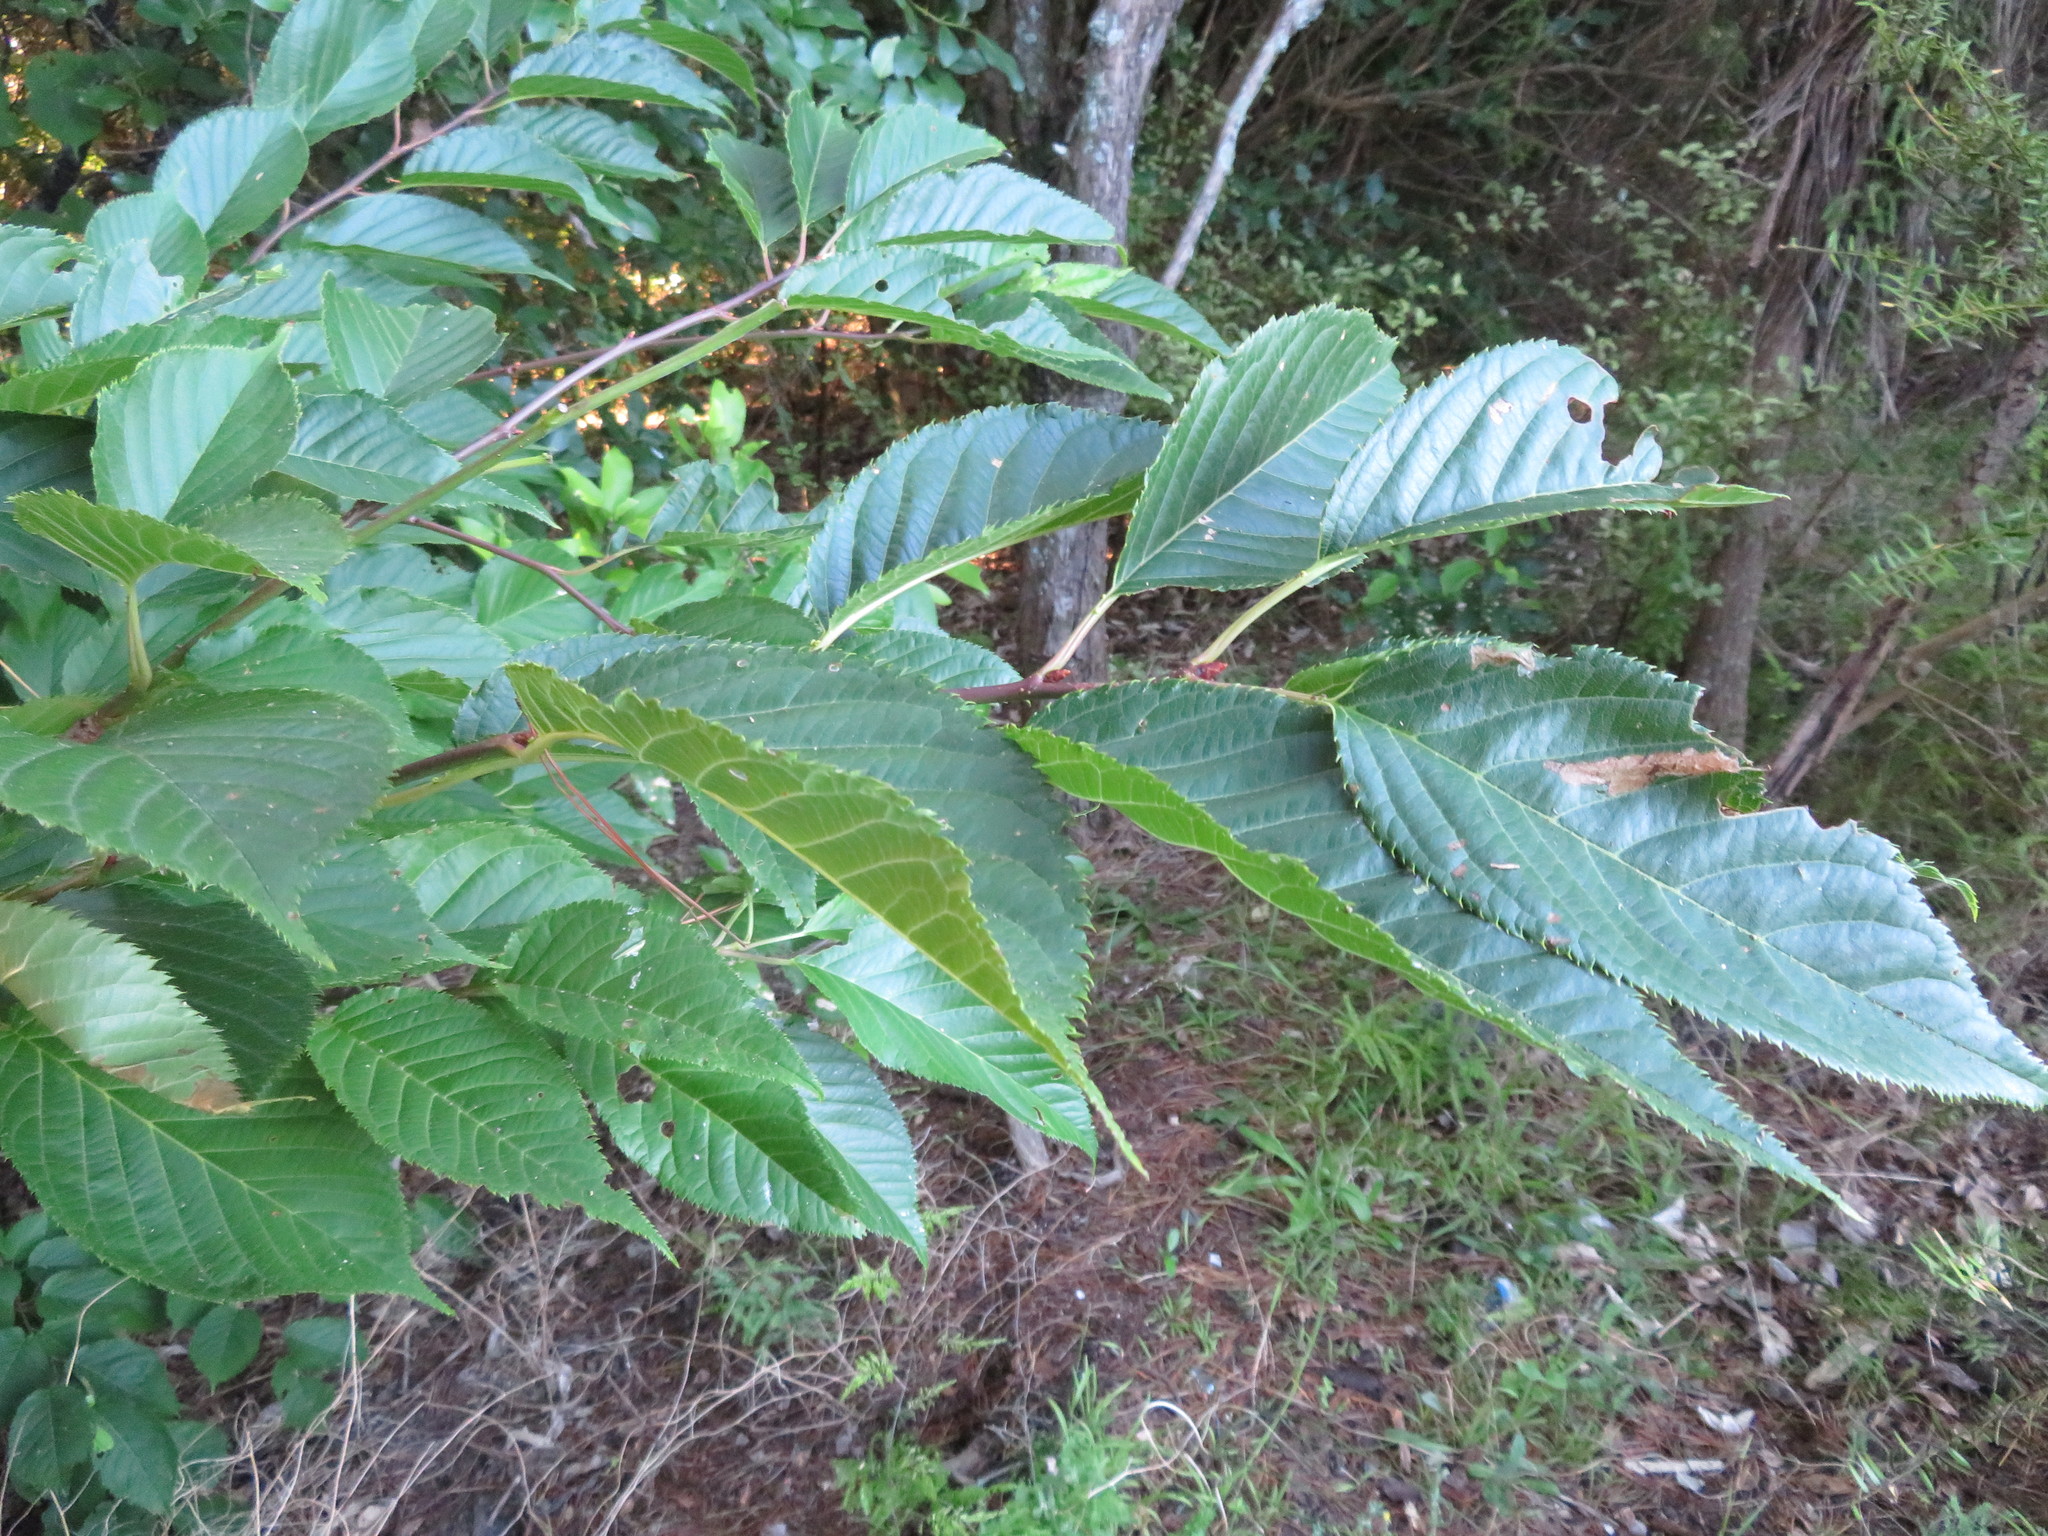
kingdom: Plantae
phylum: Tracheophyta
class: Magnoliopsida
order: Rosales
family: Rosaceae
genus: Prunus
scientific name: Prunus serrulata
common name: Japanese cherry
